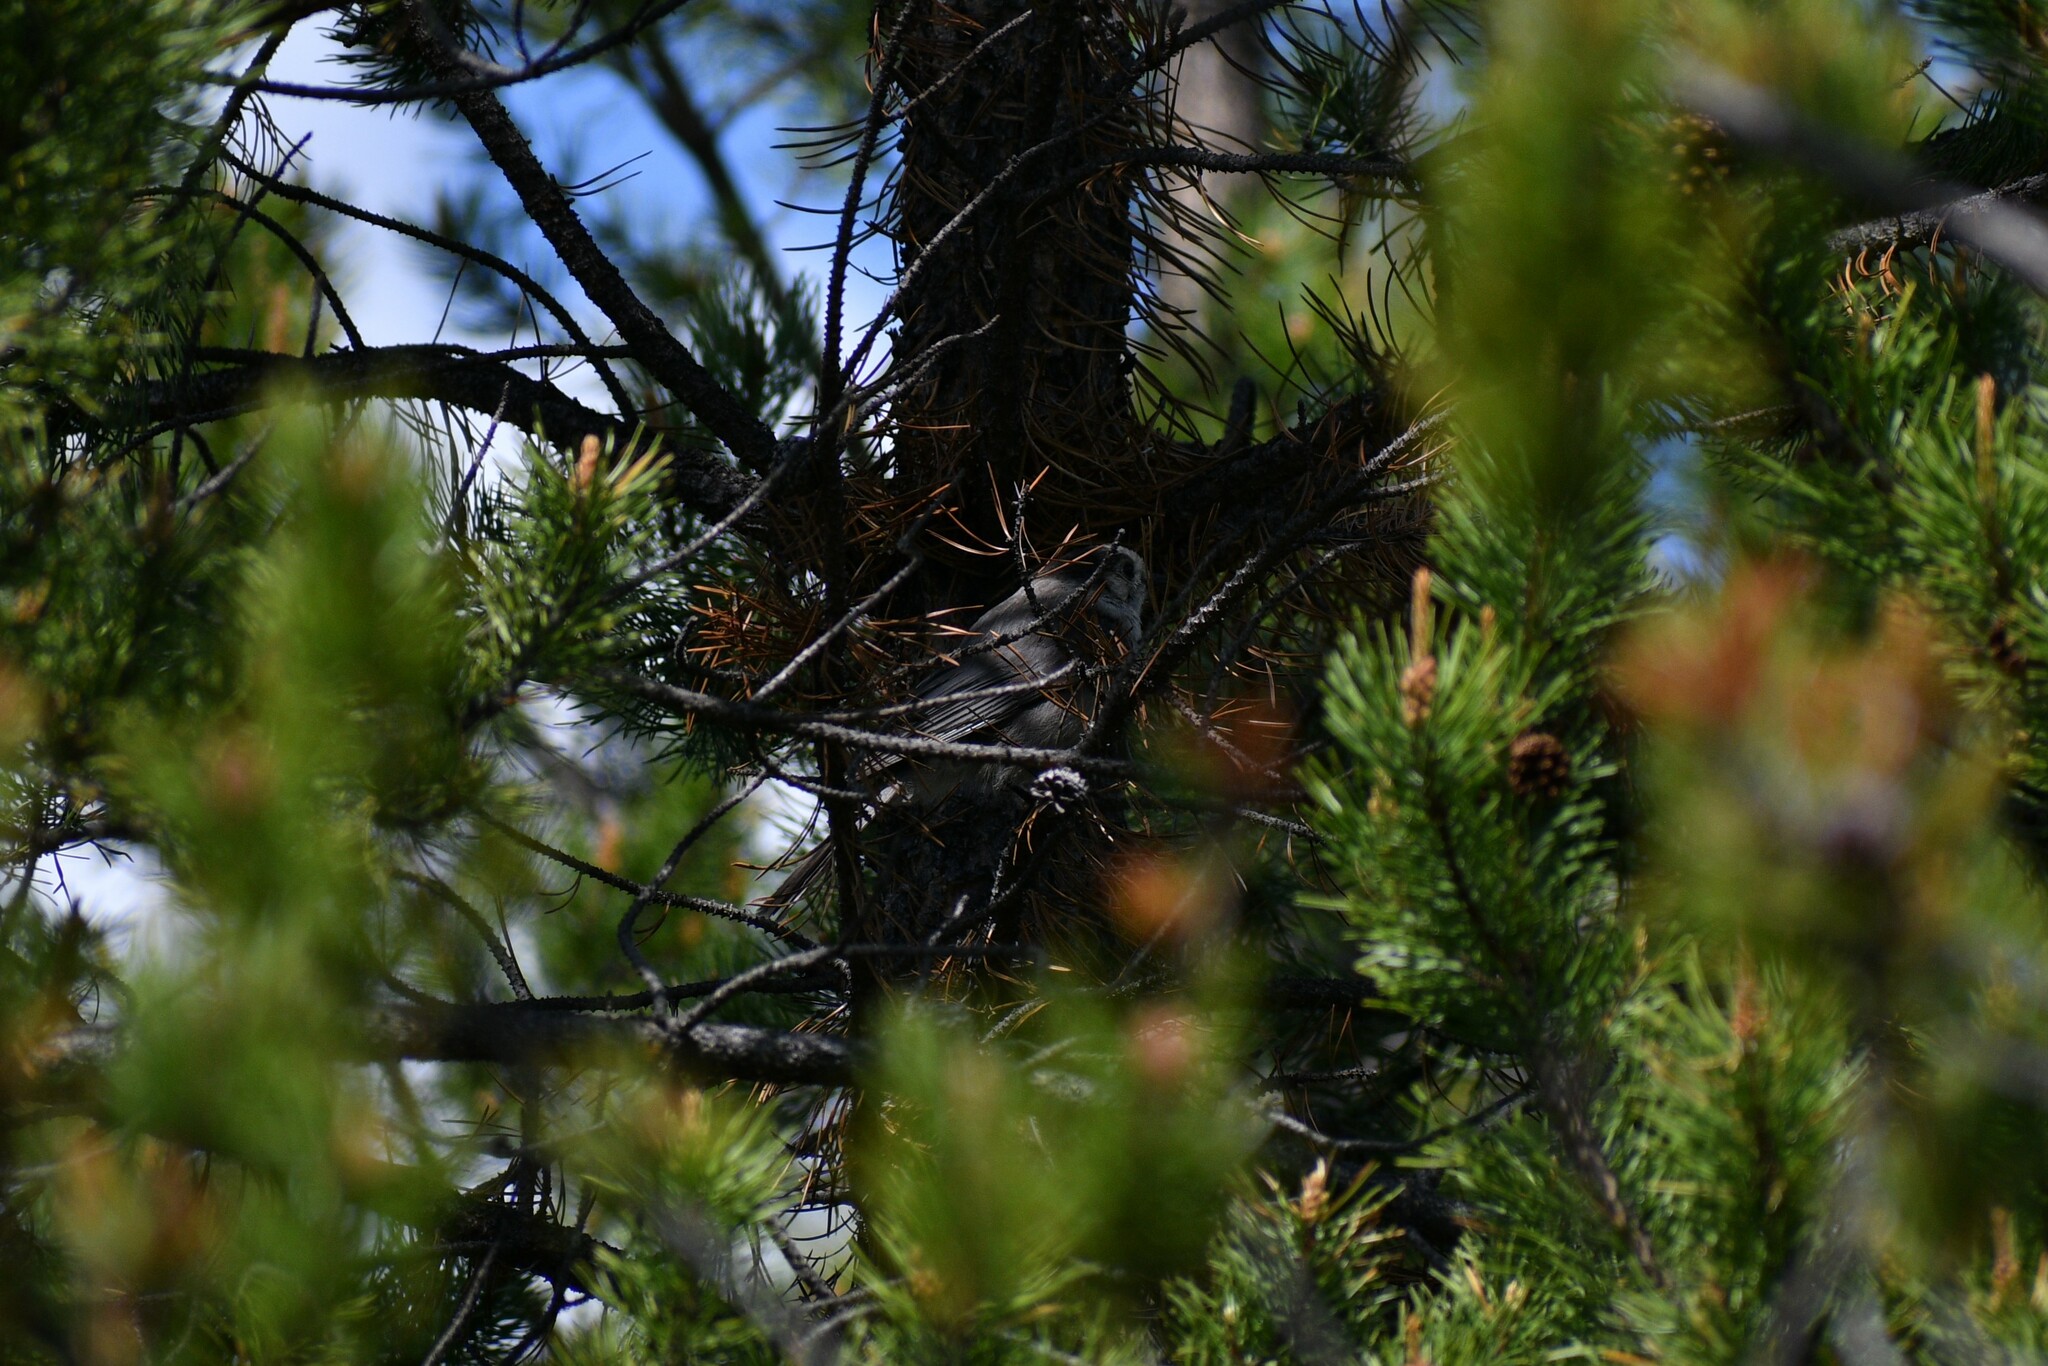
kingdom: Animalia
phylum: Chordata
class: Aves
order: Passeriformes
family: Corvidae
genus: Perisoreus
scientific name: Perisoreus canadensis
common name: Gray jay
